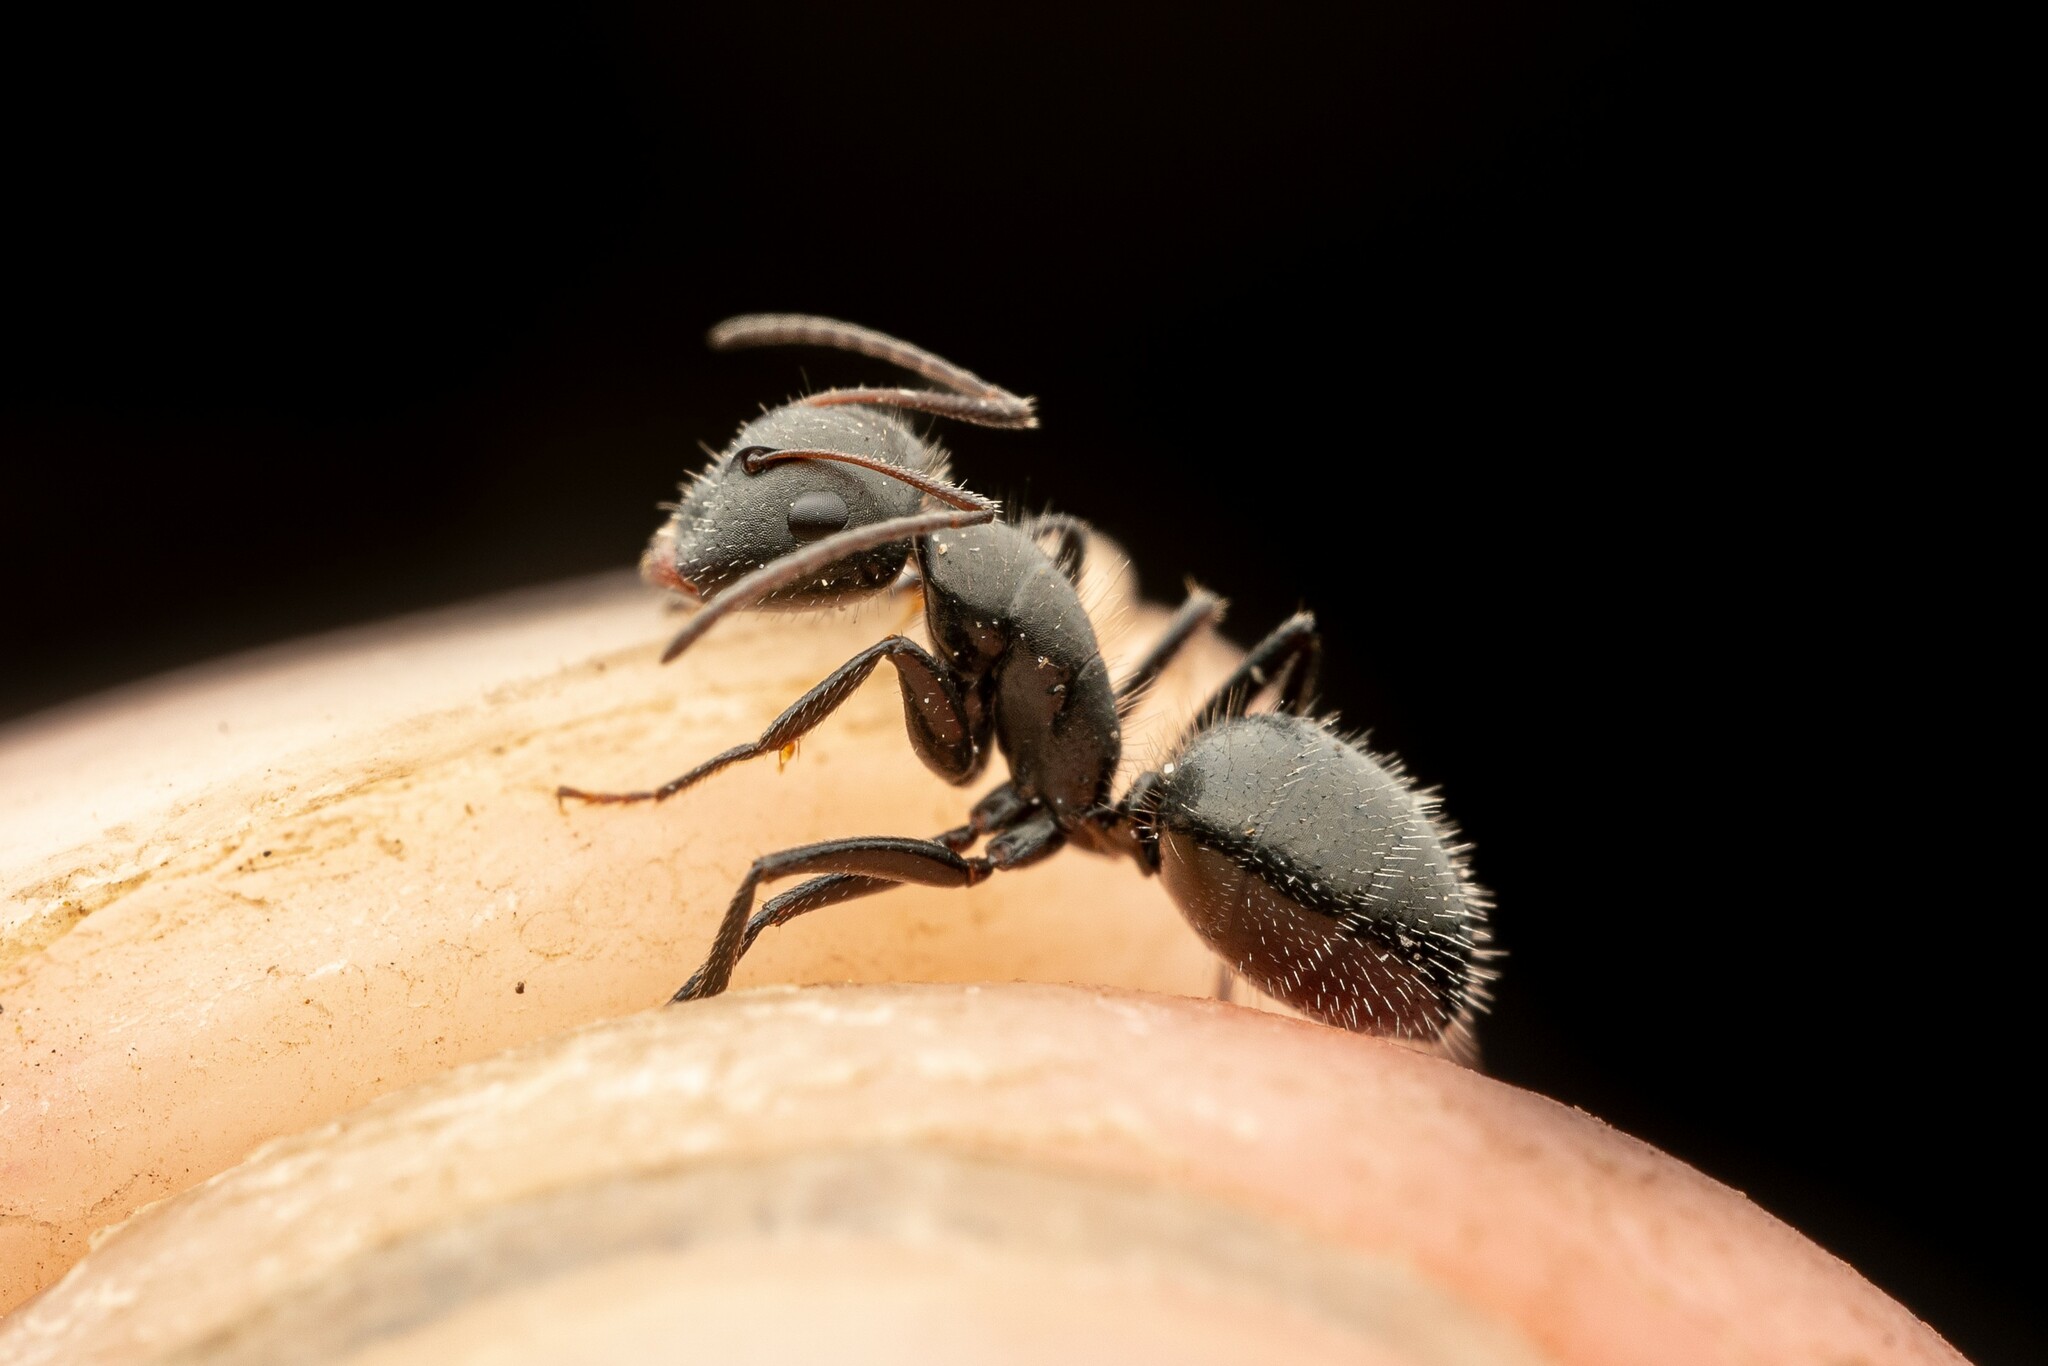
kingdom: Animalia
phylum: Arthropoda
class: Insecta
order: Hymenoptera
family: Formicidae
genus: Camponotus
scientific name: Camponotus ulcerosus
